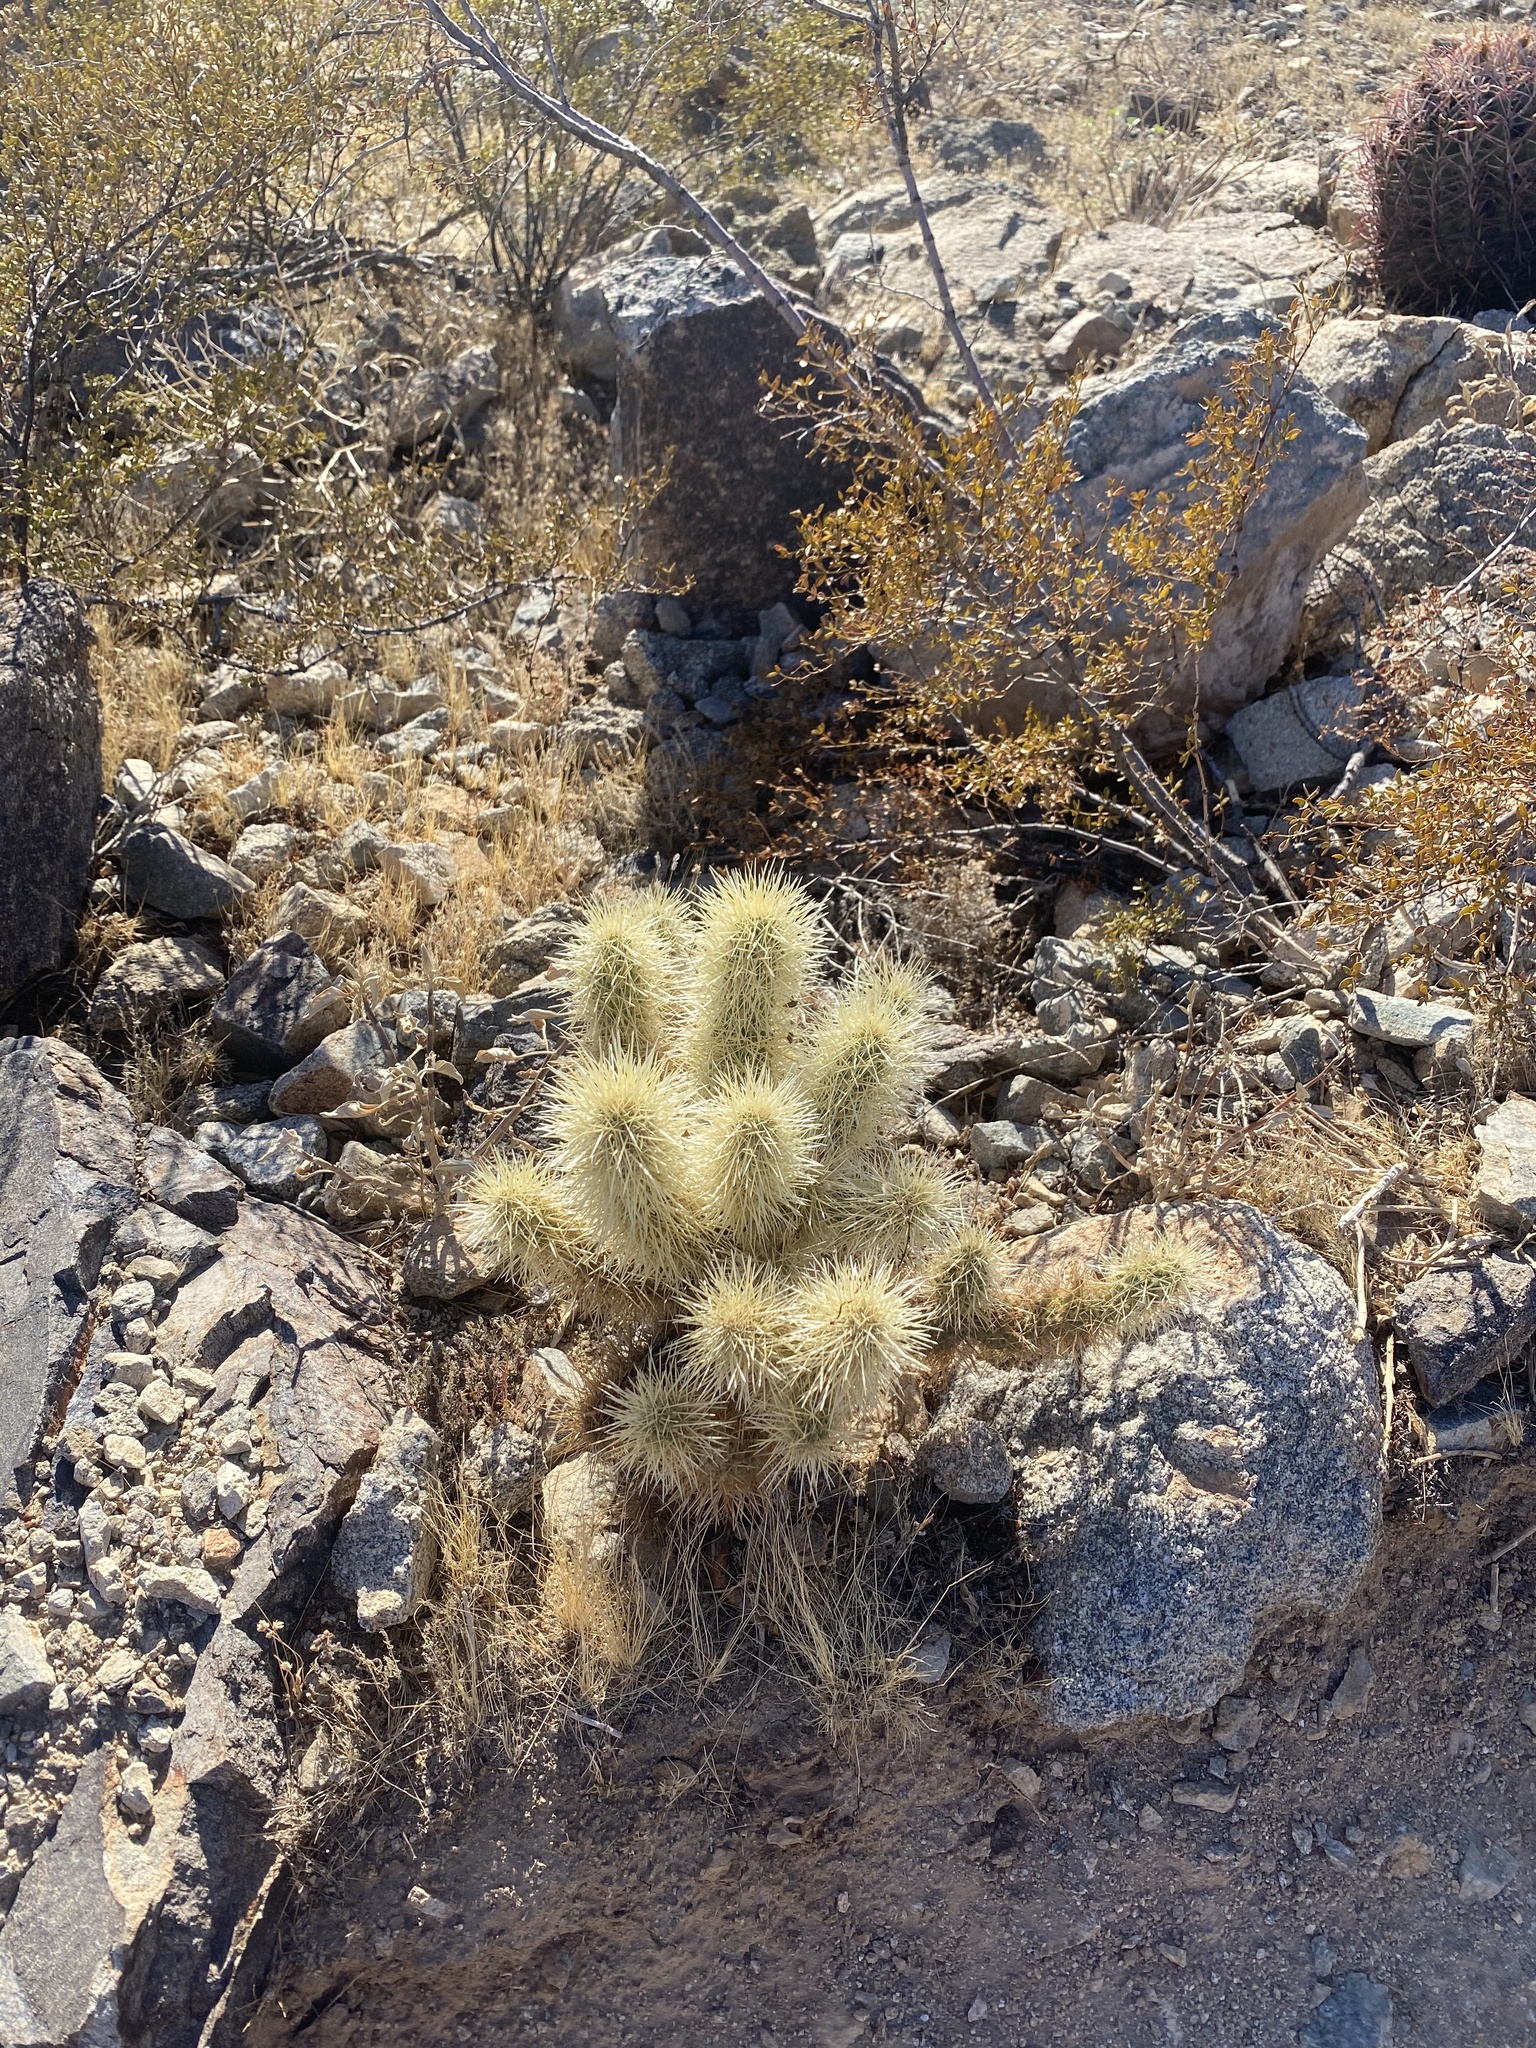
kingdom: Plantae
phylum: Tracheophyta
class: Magnoliopsida
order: Caryophyllales
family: Cactaceae
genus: Cylindropuntia
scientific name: Cylindropuntia fosbergii
